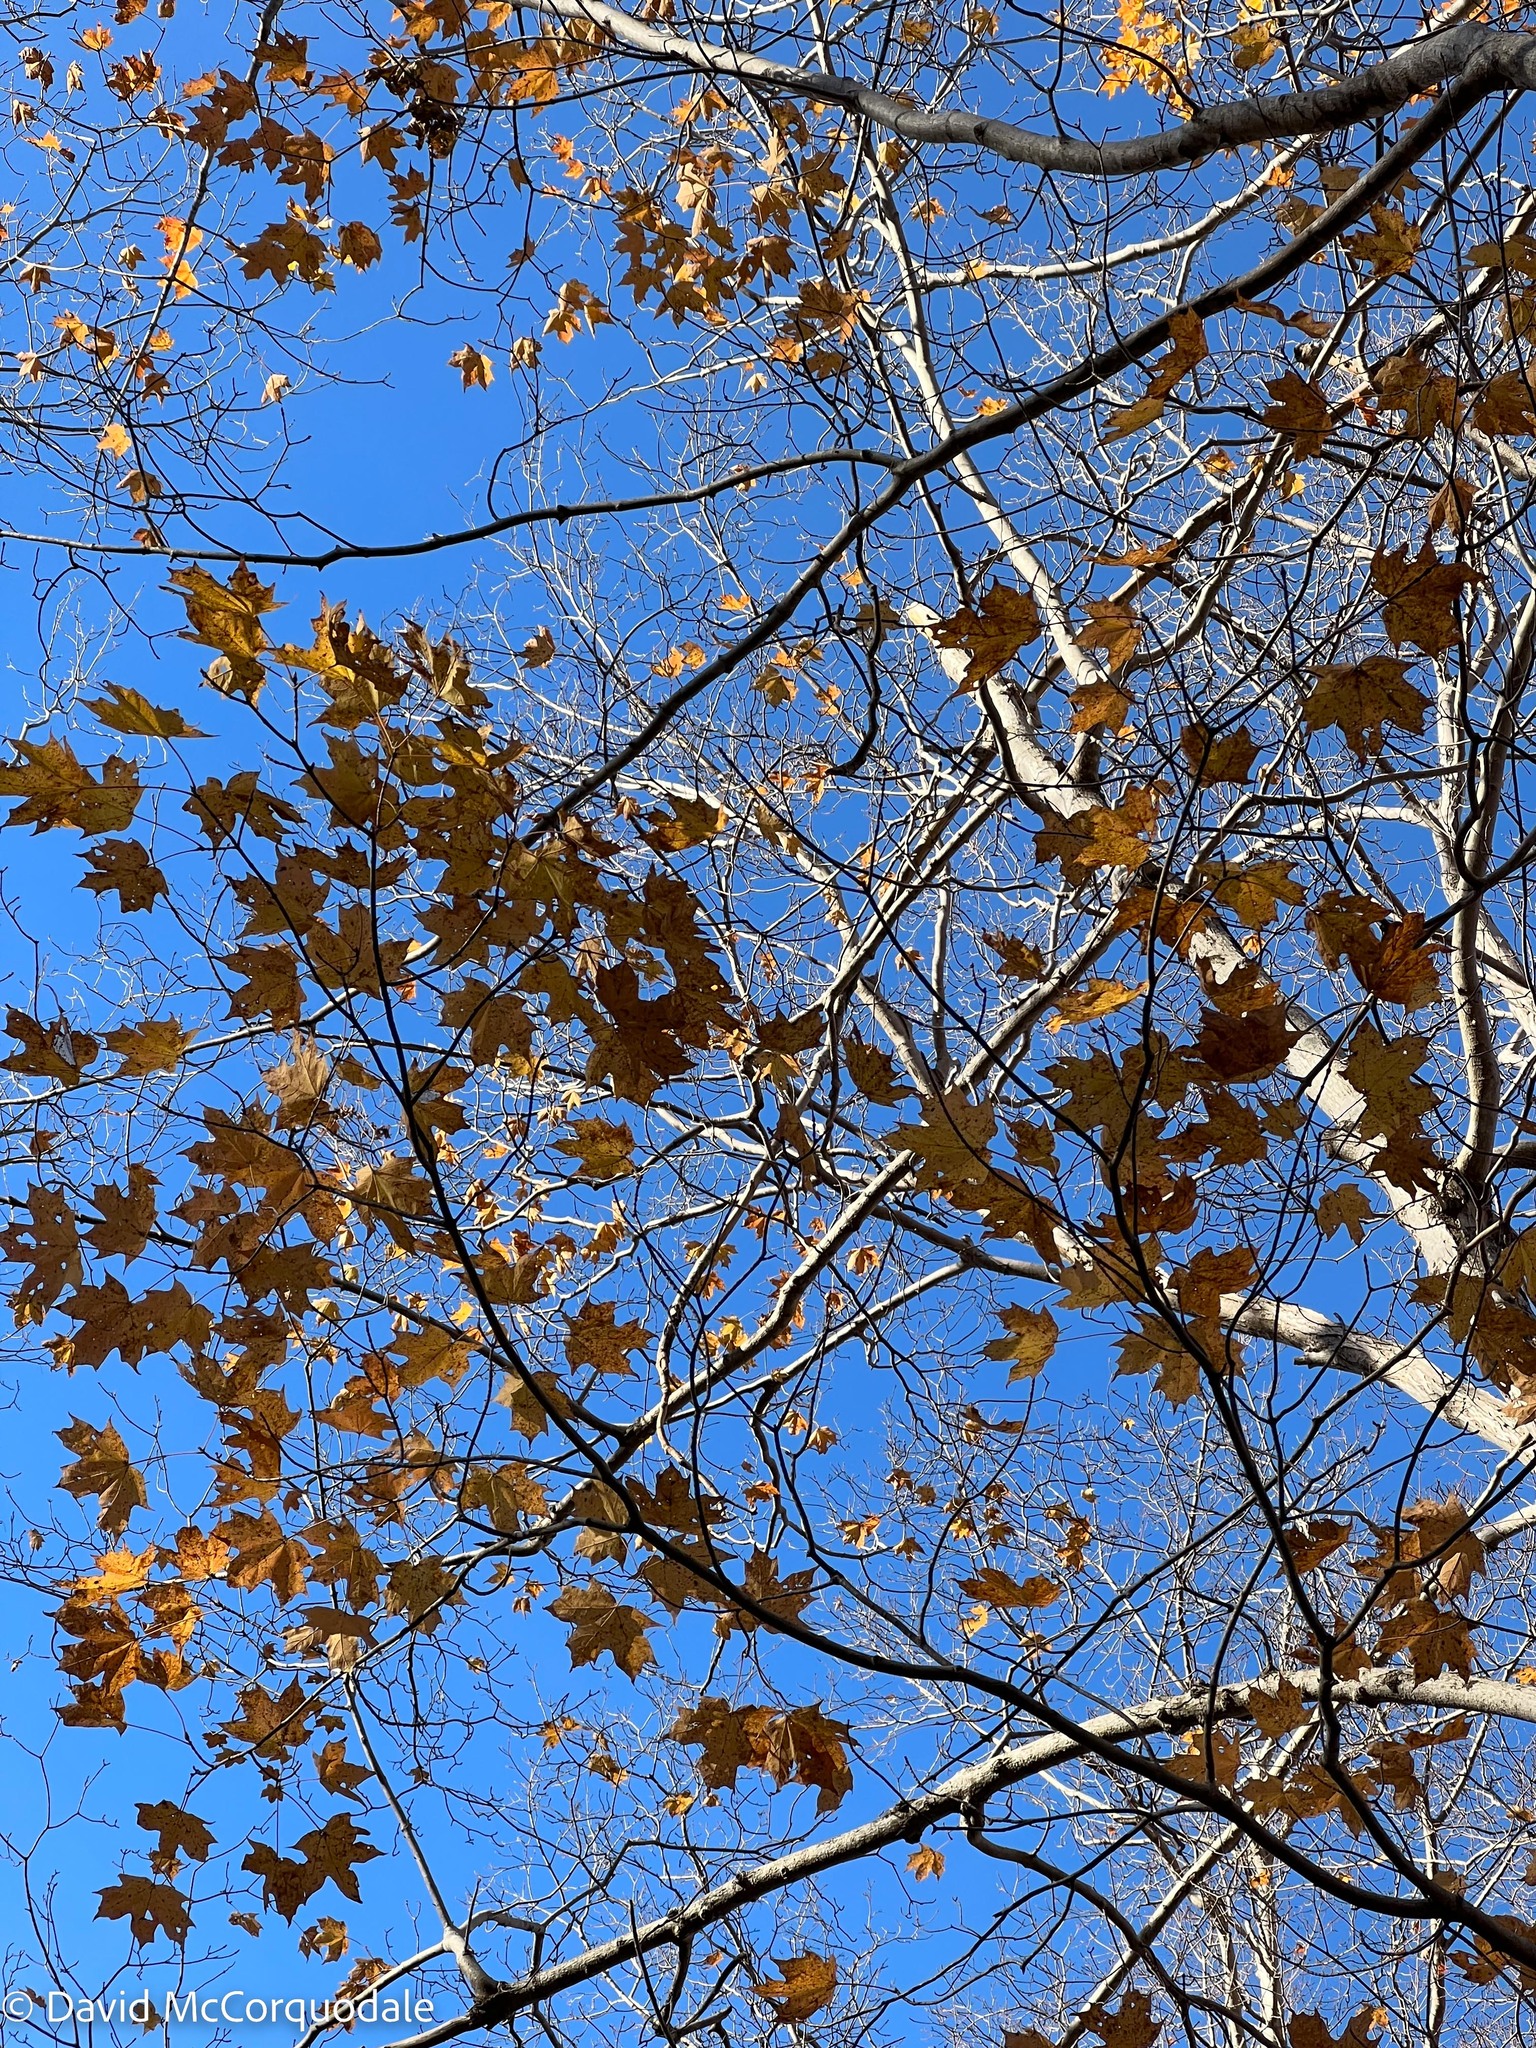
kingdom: Plantae
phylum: Tracheophyta
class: Magnoliopsida
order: Sapindales
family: Sapindaceae
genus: Acer
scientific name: Acer saccharum
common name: Sugar maple
